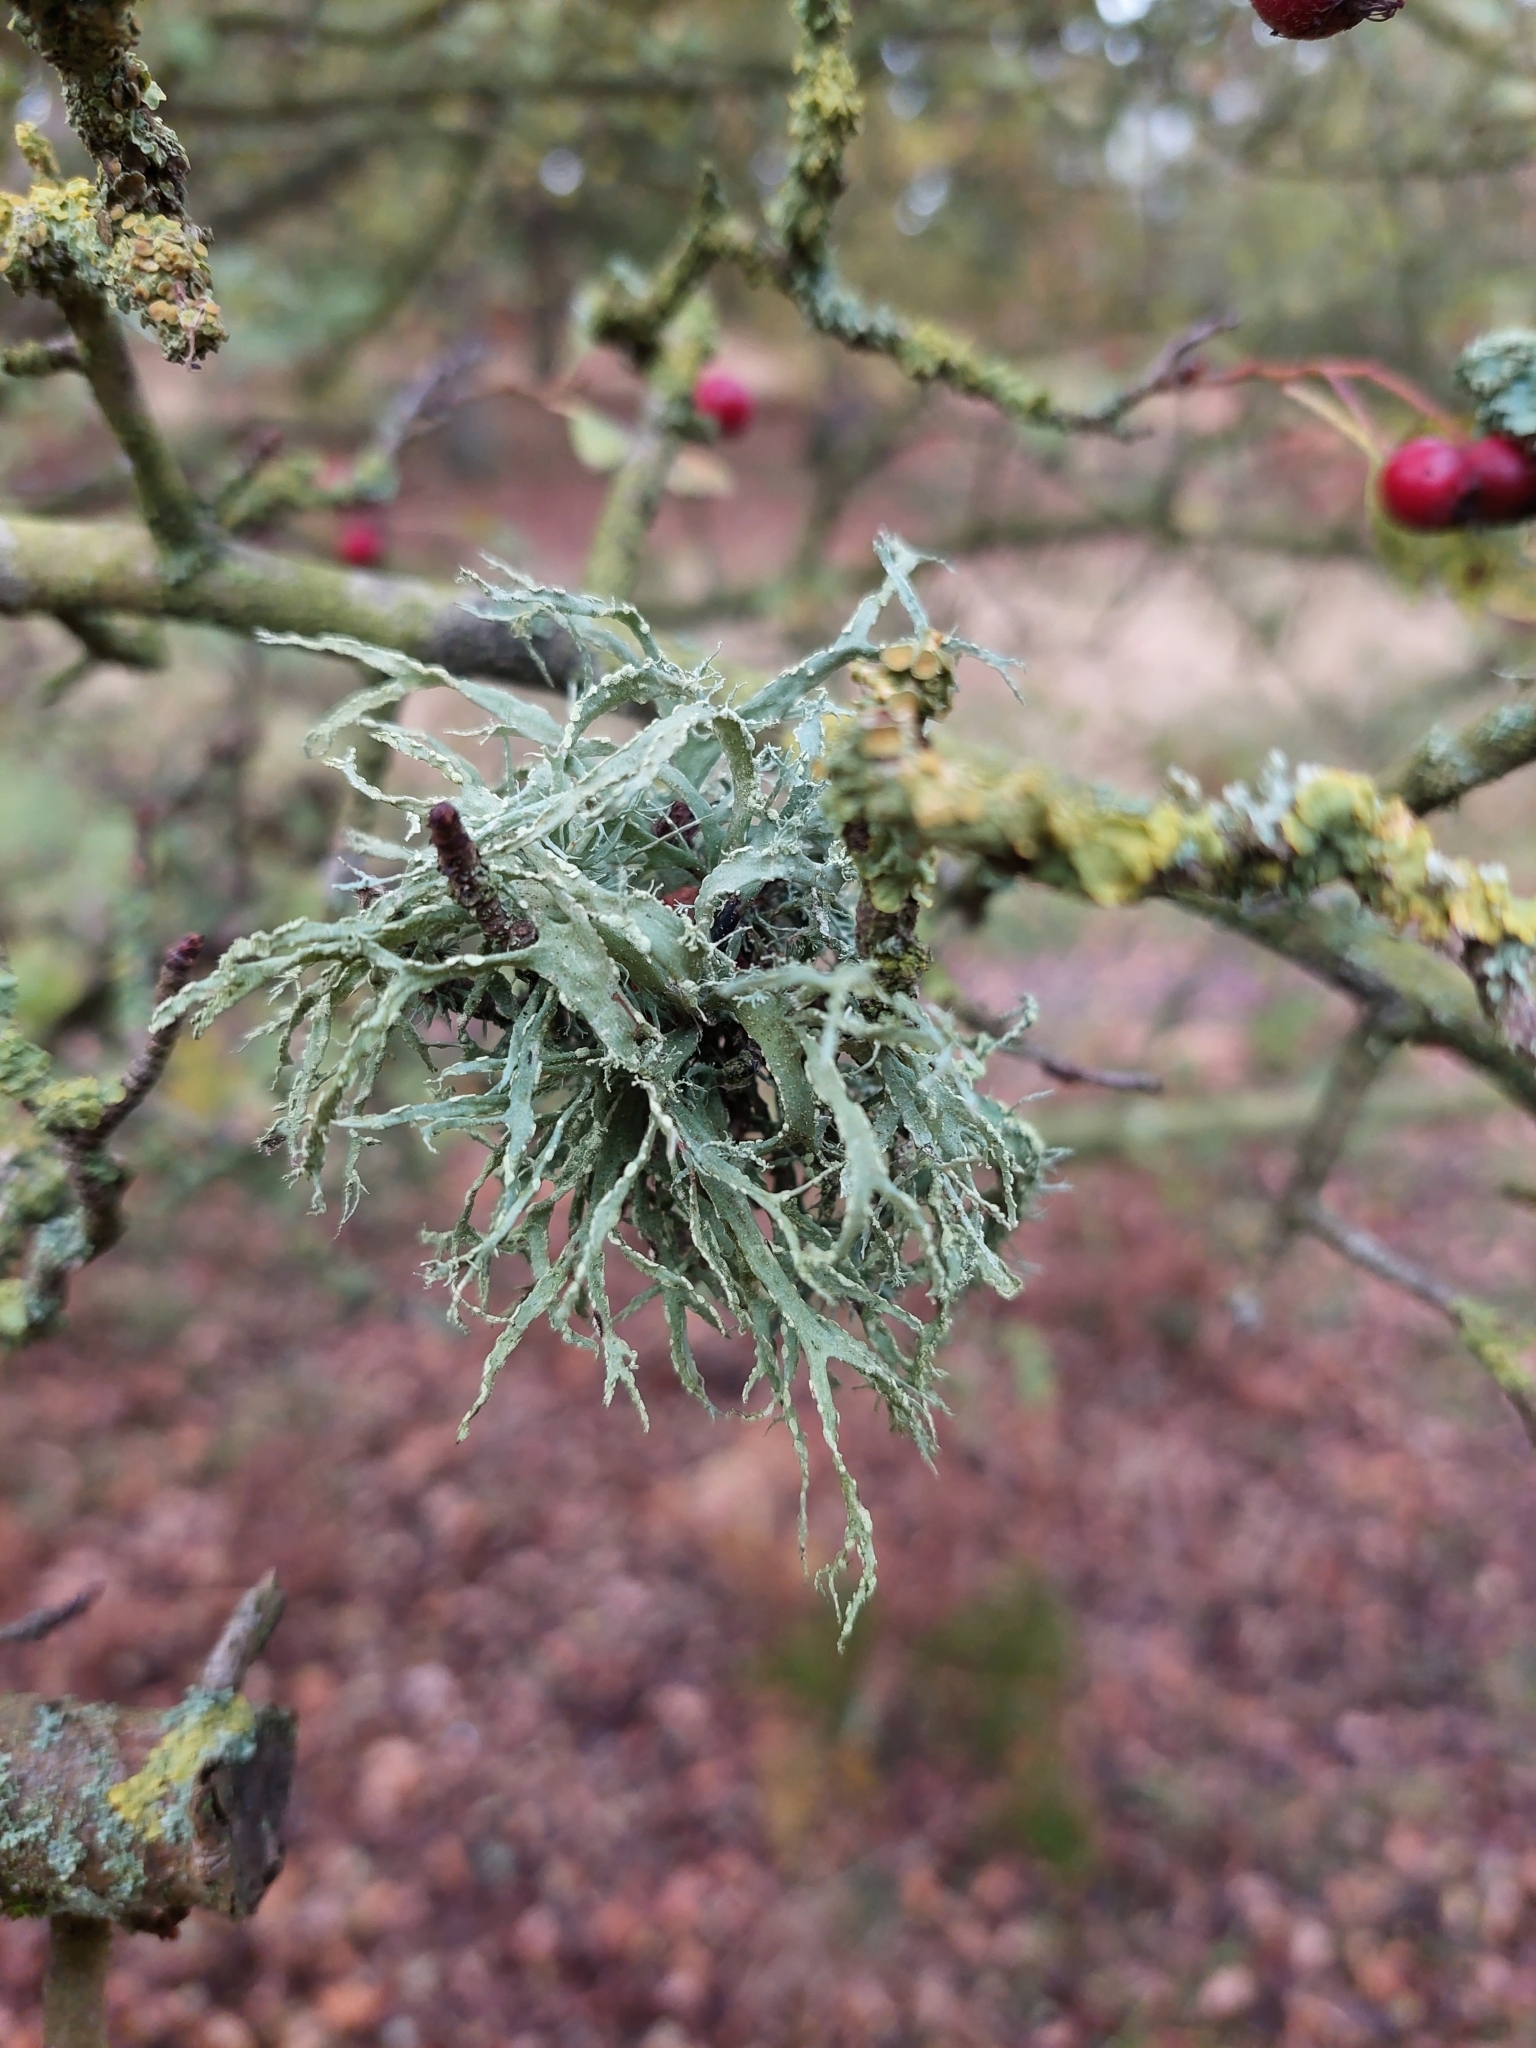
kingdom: Fungi
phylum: Ascomycota
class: Lecanoromycetes
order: Lecanorales
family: Ramalinaceae
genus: Ramalina
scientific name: Ramalina farinacea
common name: Farinose cartilage lichen
